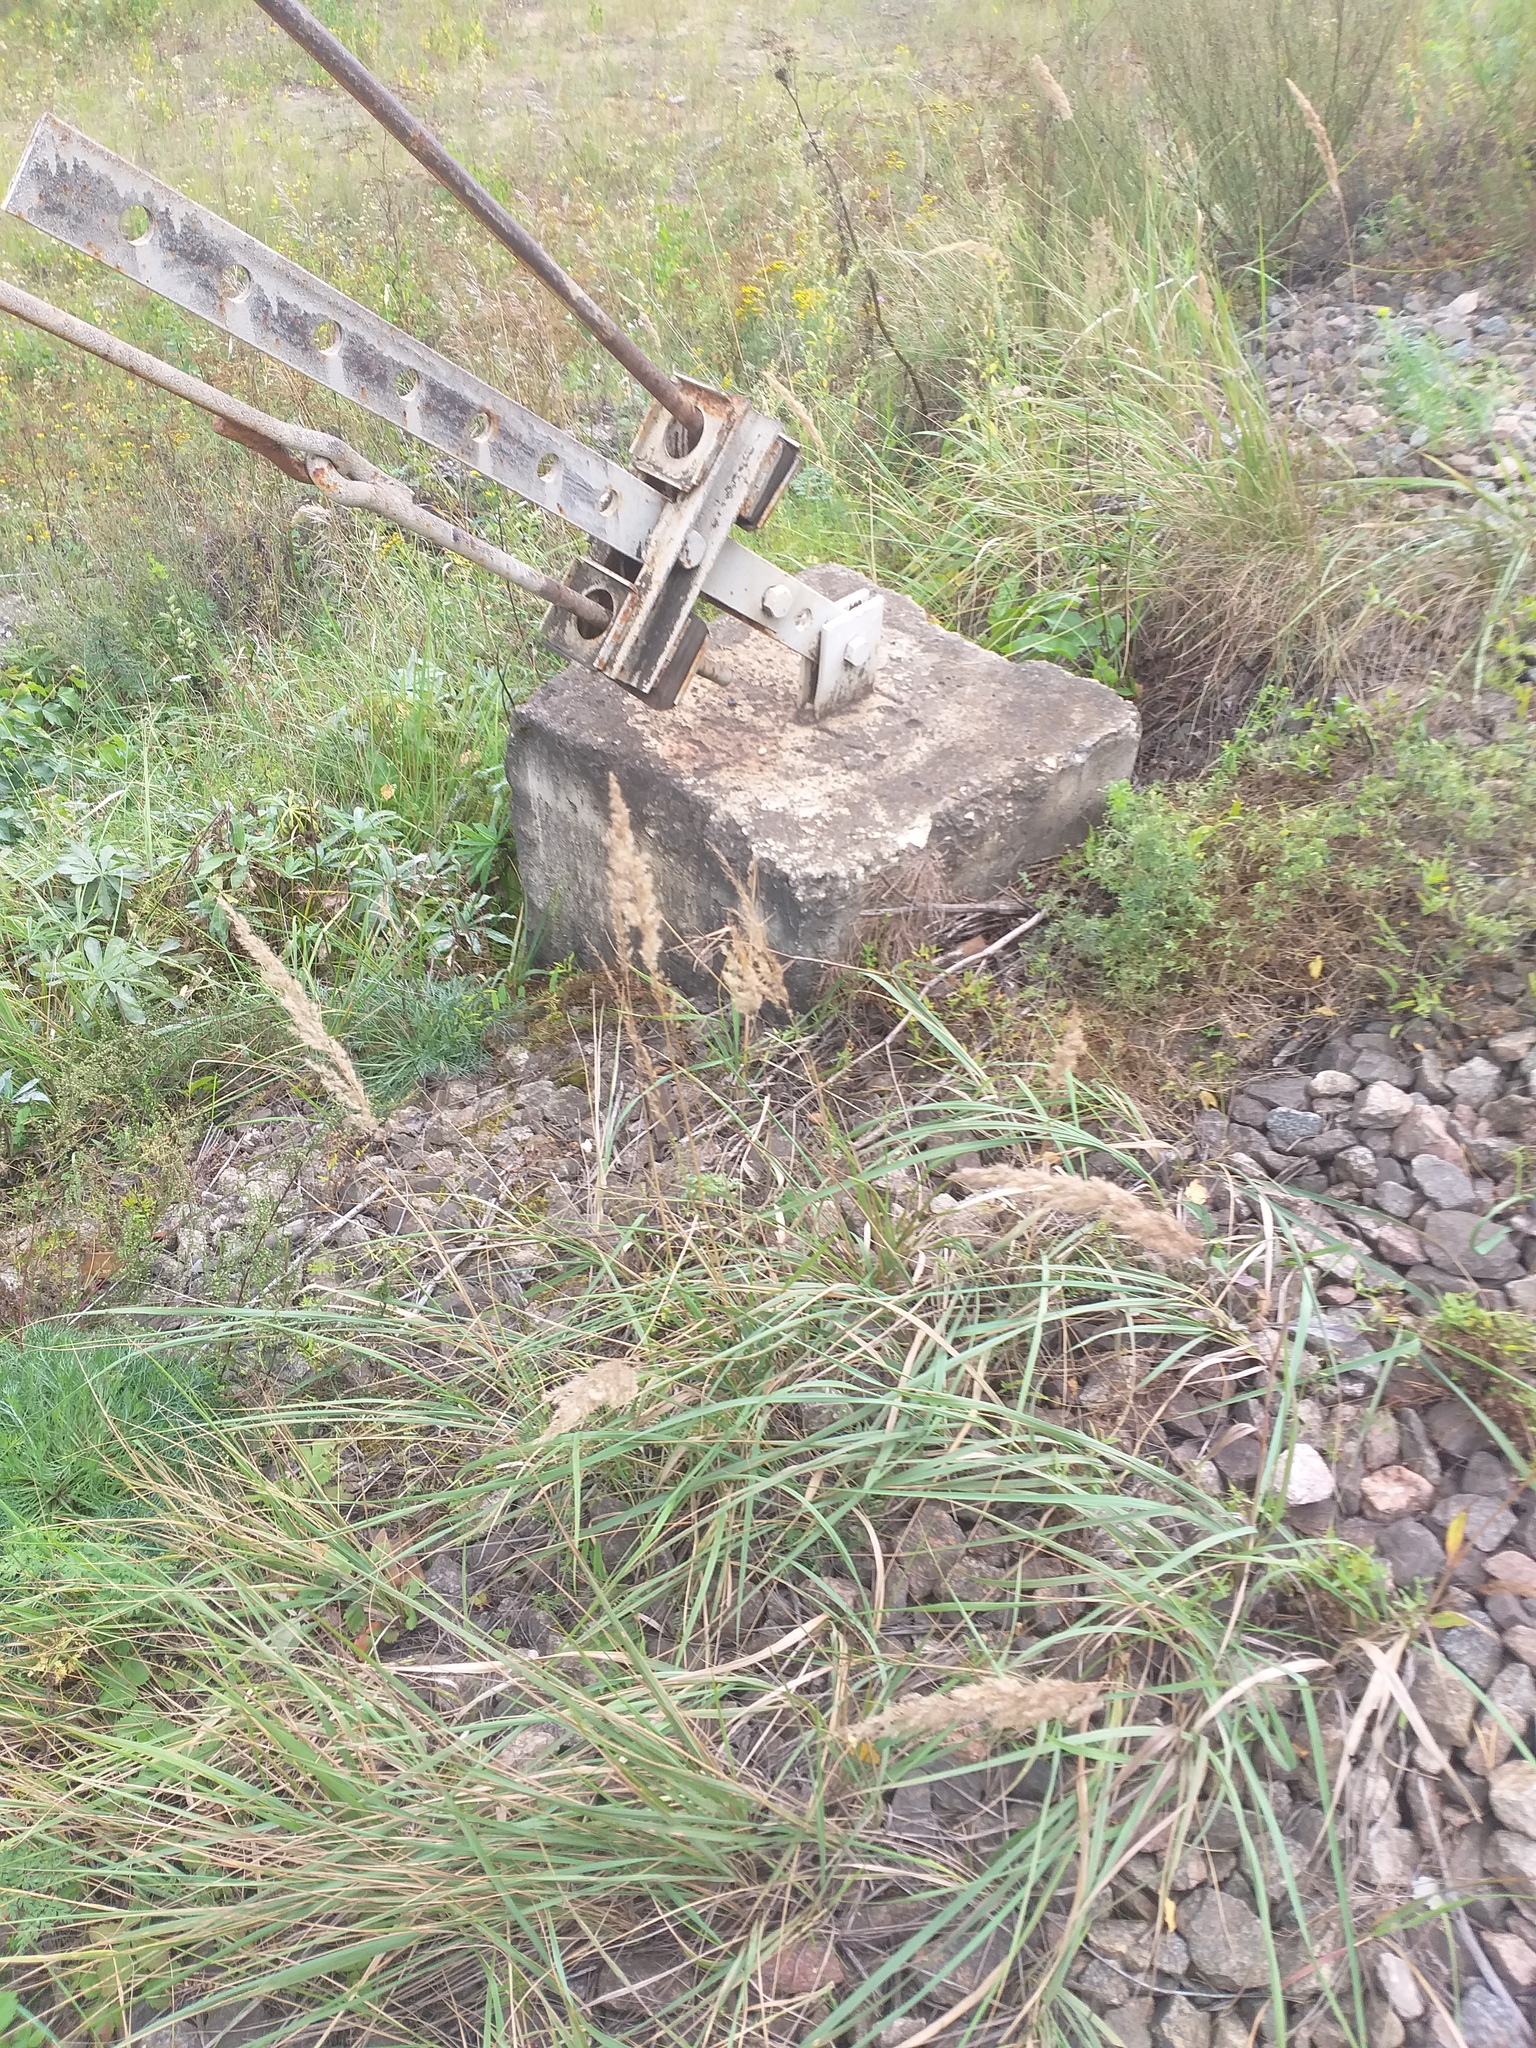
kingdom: Plantae
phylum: Tracheophyta
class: Liliopsida
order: Poales
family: Poaceae
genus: Calamagrostis
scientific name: Calamagrostis epigejos
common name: Wood small-reed
